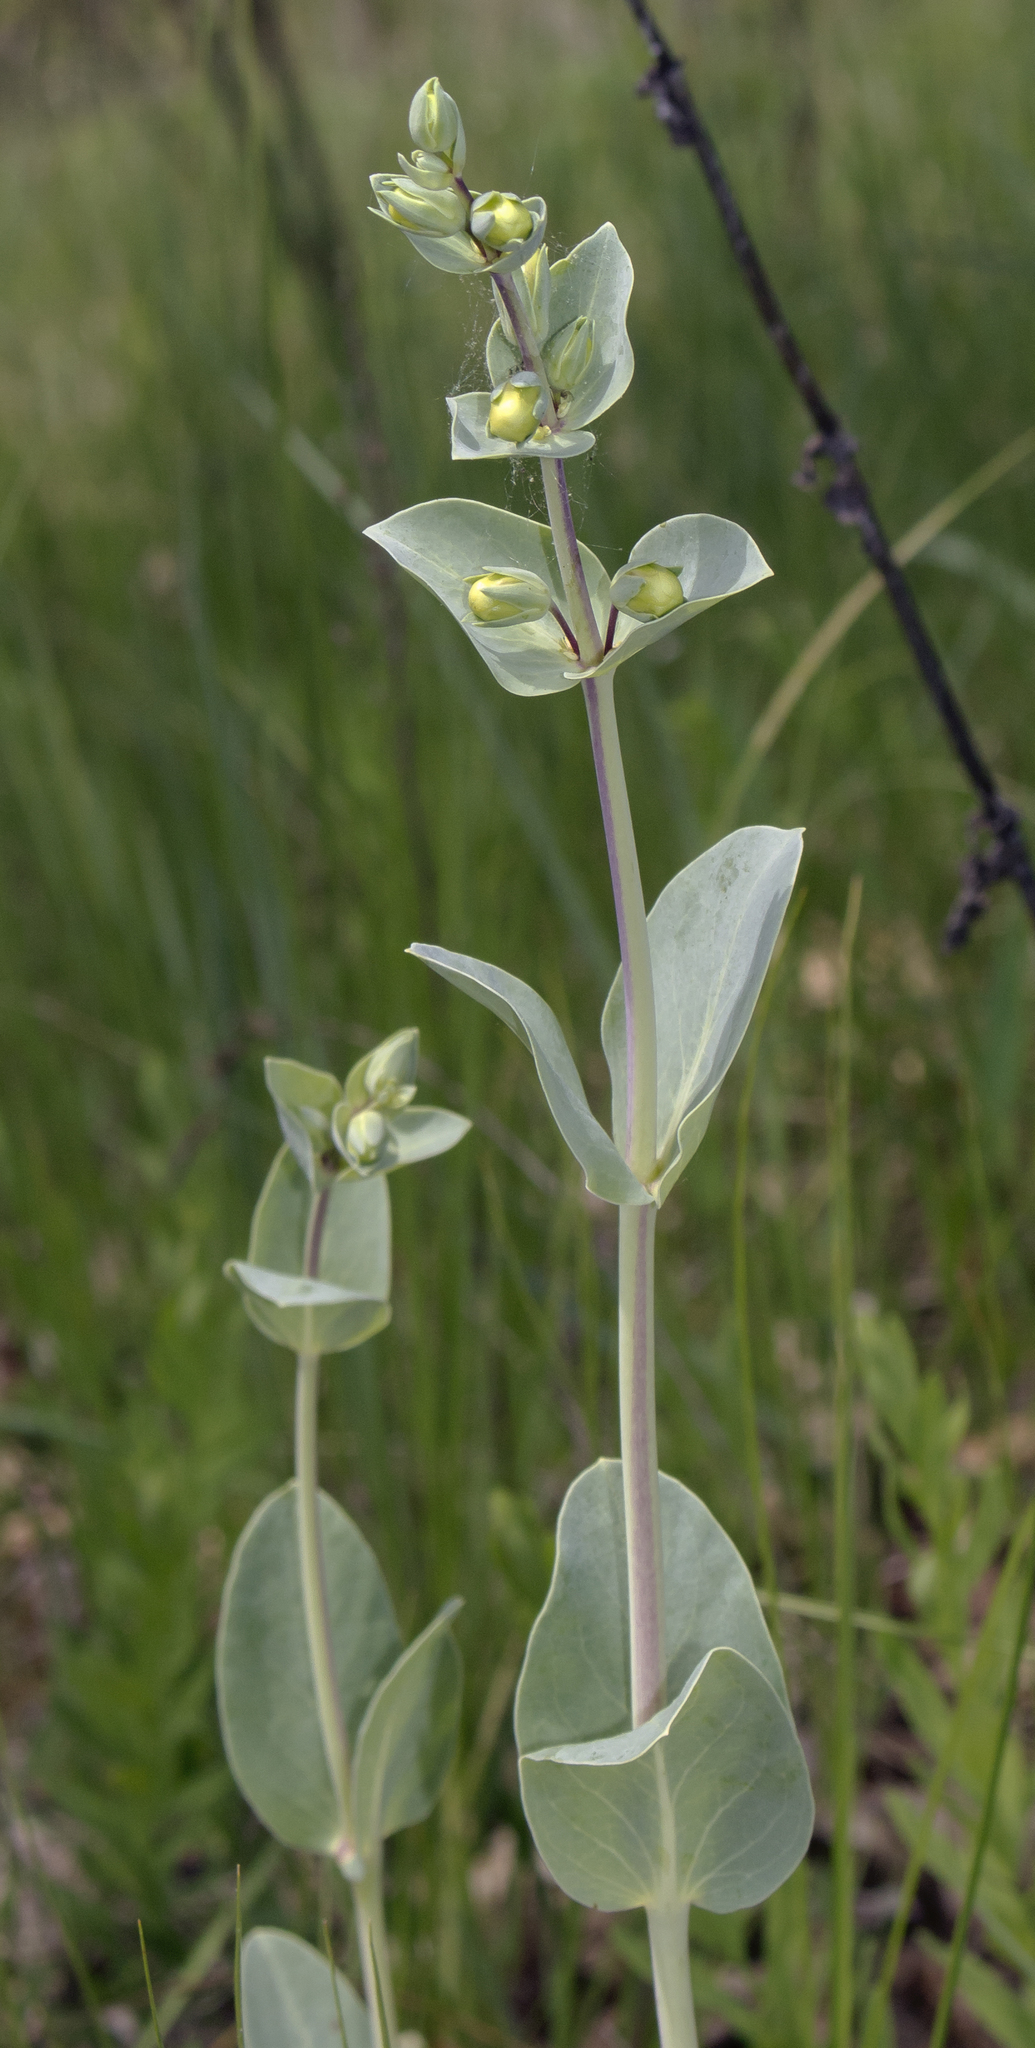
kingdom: Plantae
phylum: Tracheophyta
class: Magnoliopsida
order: Lamiales
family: Plantaginaceae
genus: Penstemon
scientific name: Penstemon
